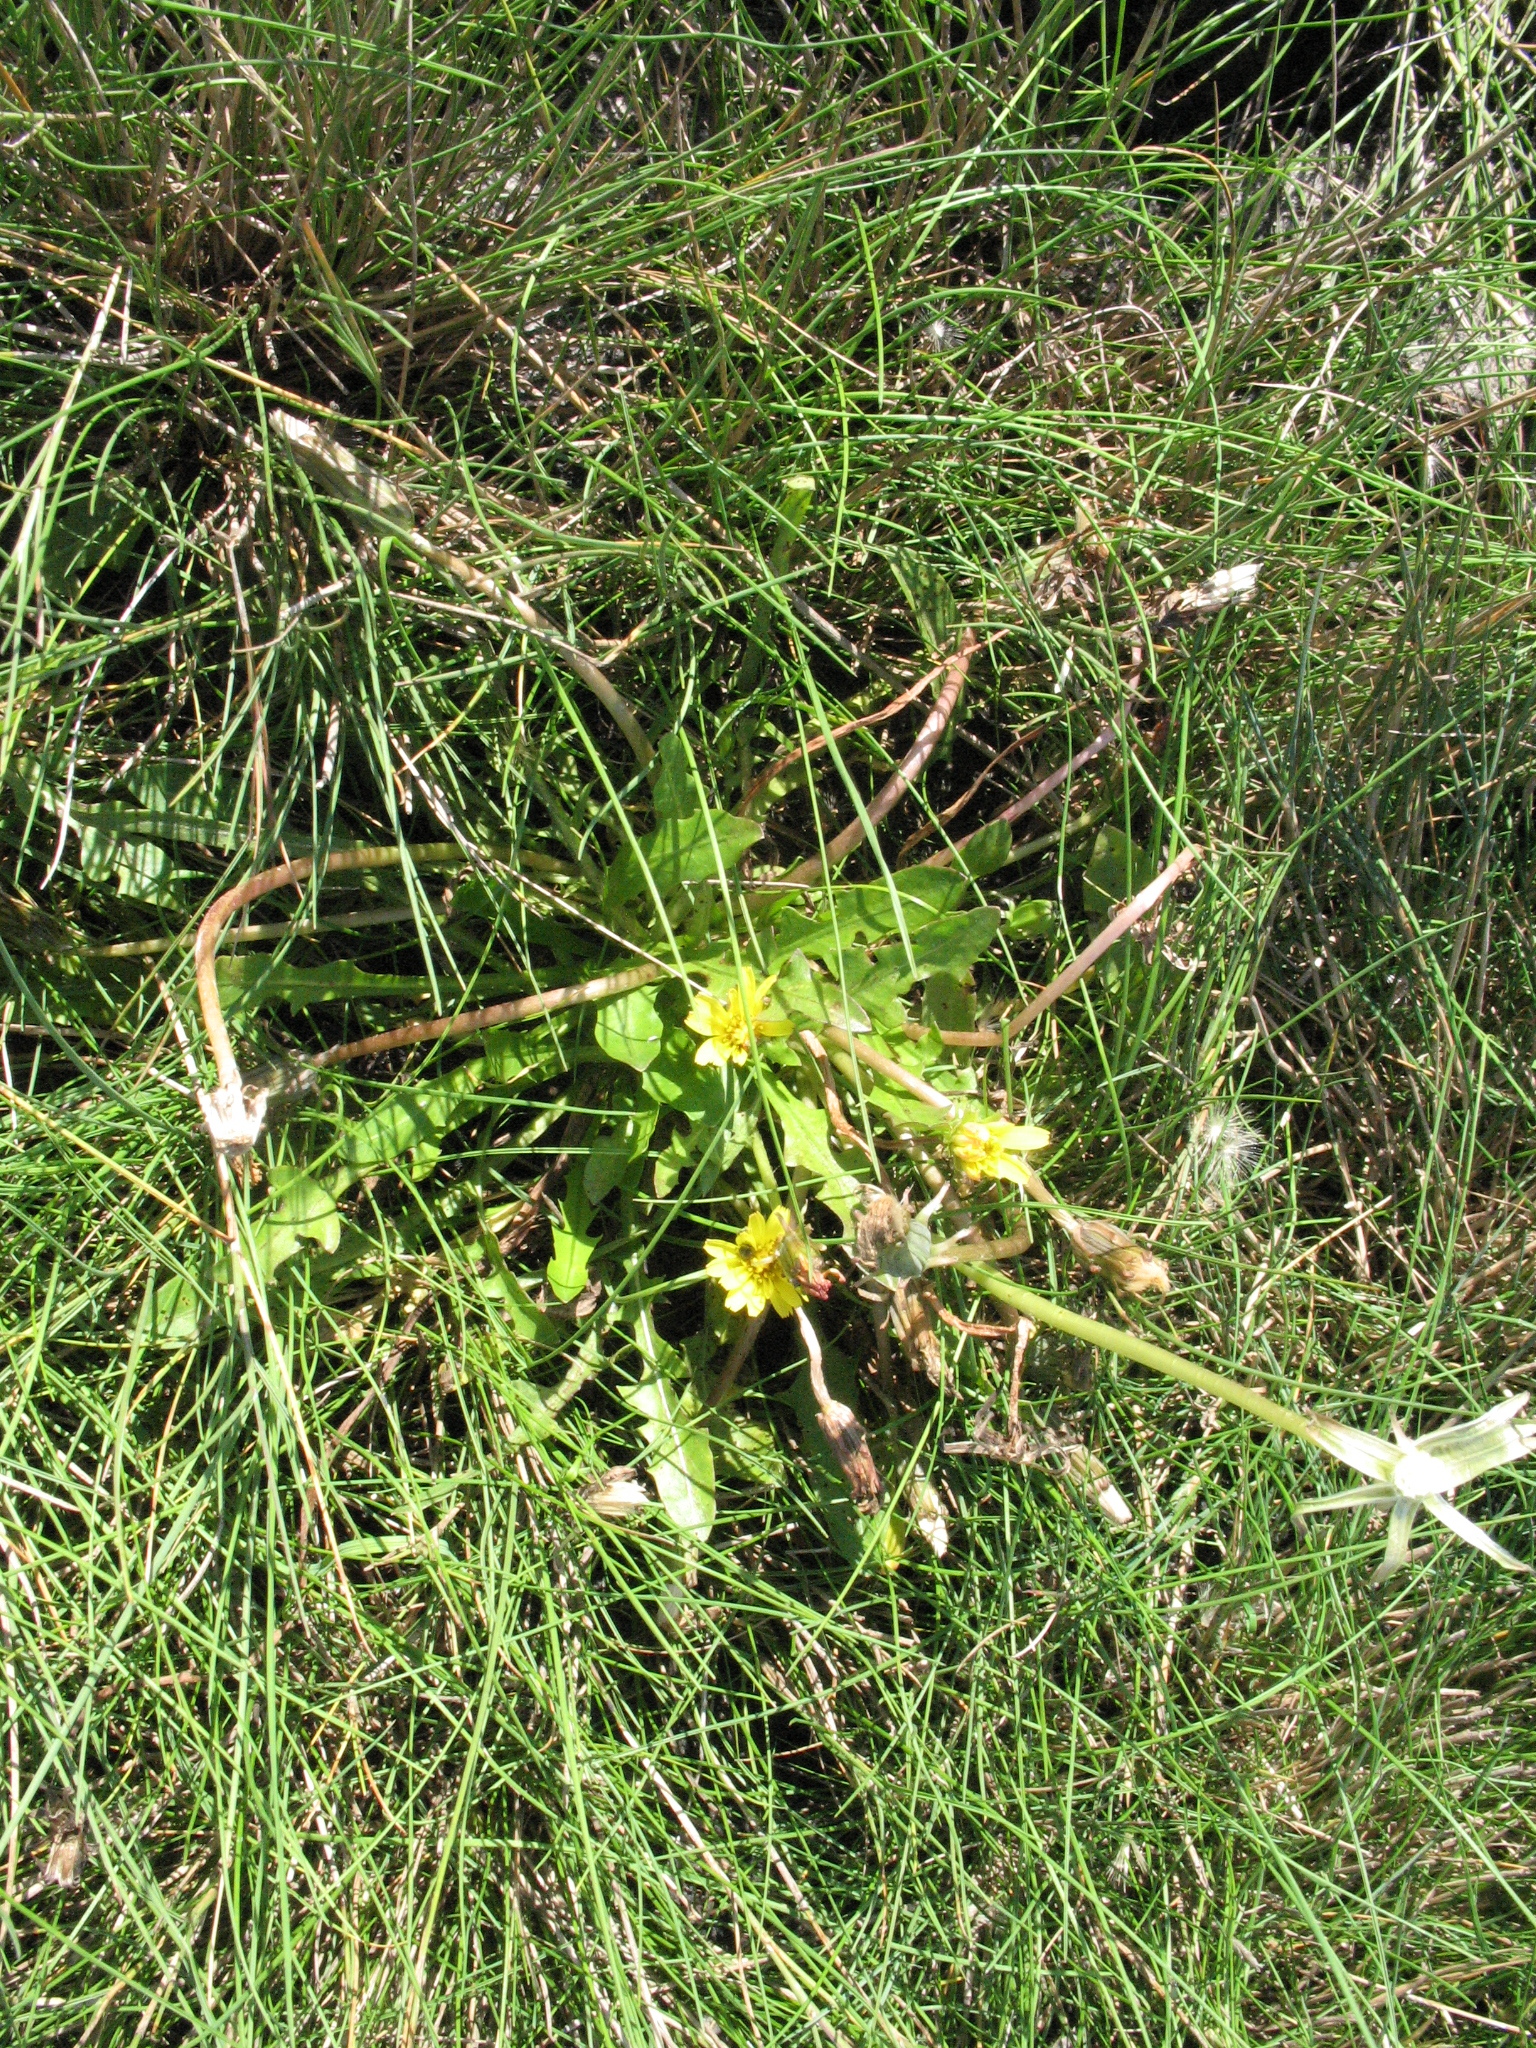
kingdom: Plantae
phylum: Tracheophyta
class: Magnoliopsida
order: Asterales
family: Asteraceae
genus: Taraxacum
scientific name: Taraxacum bessarabicum
